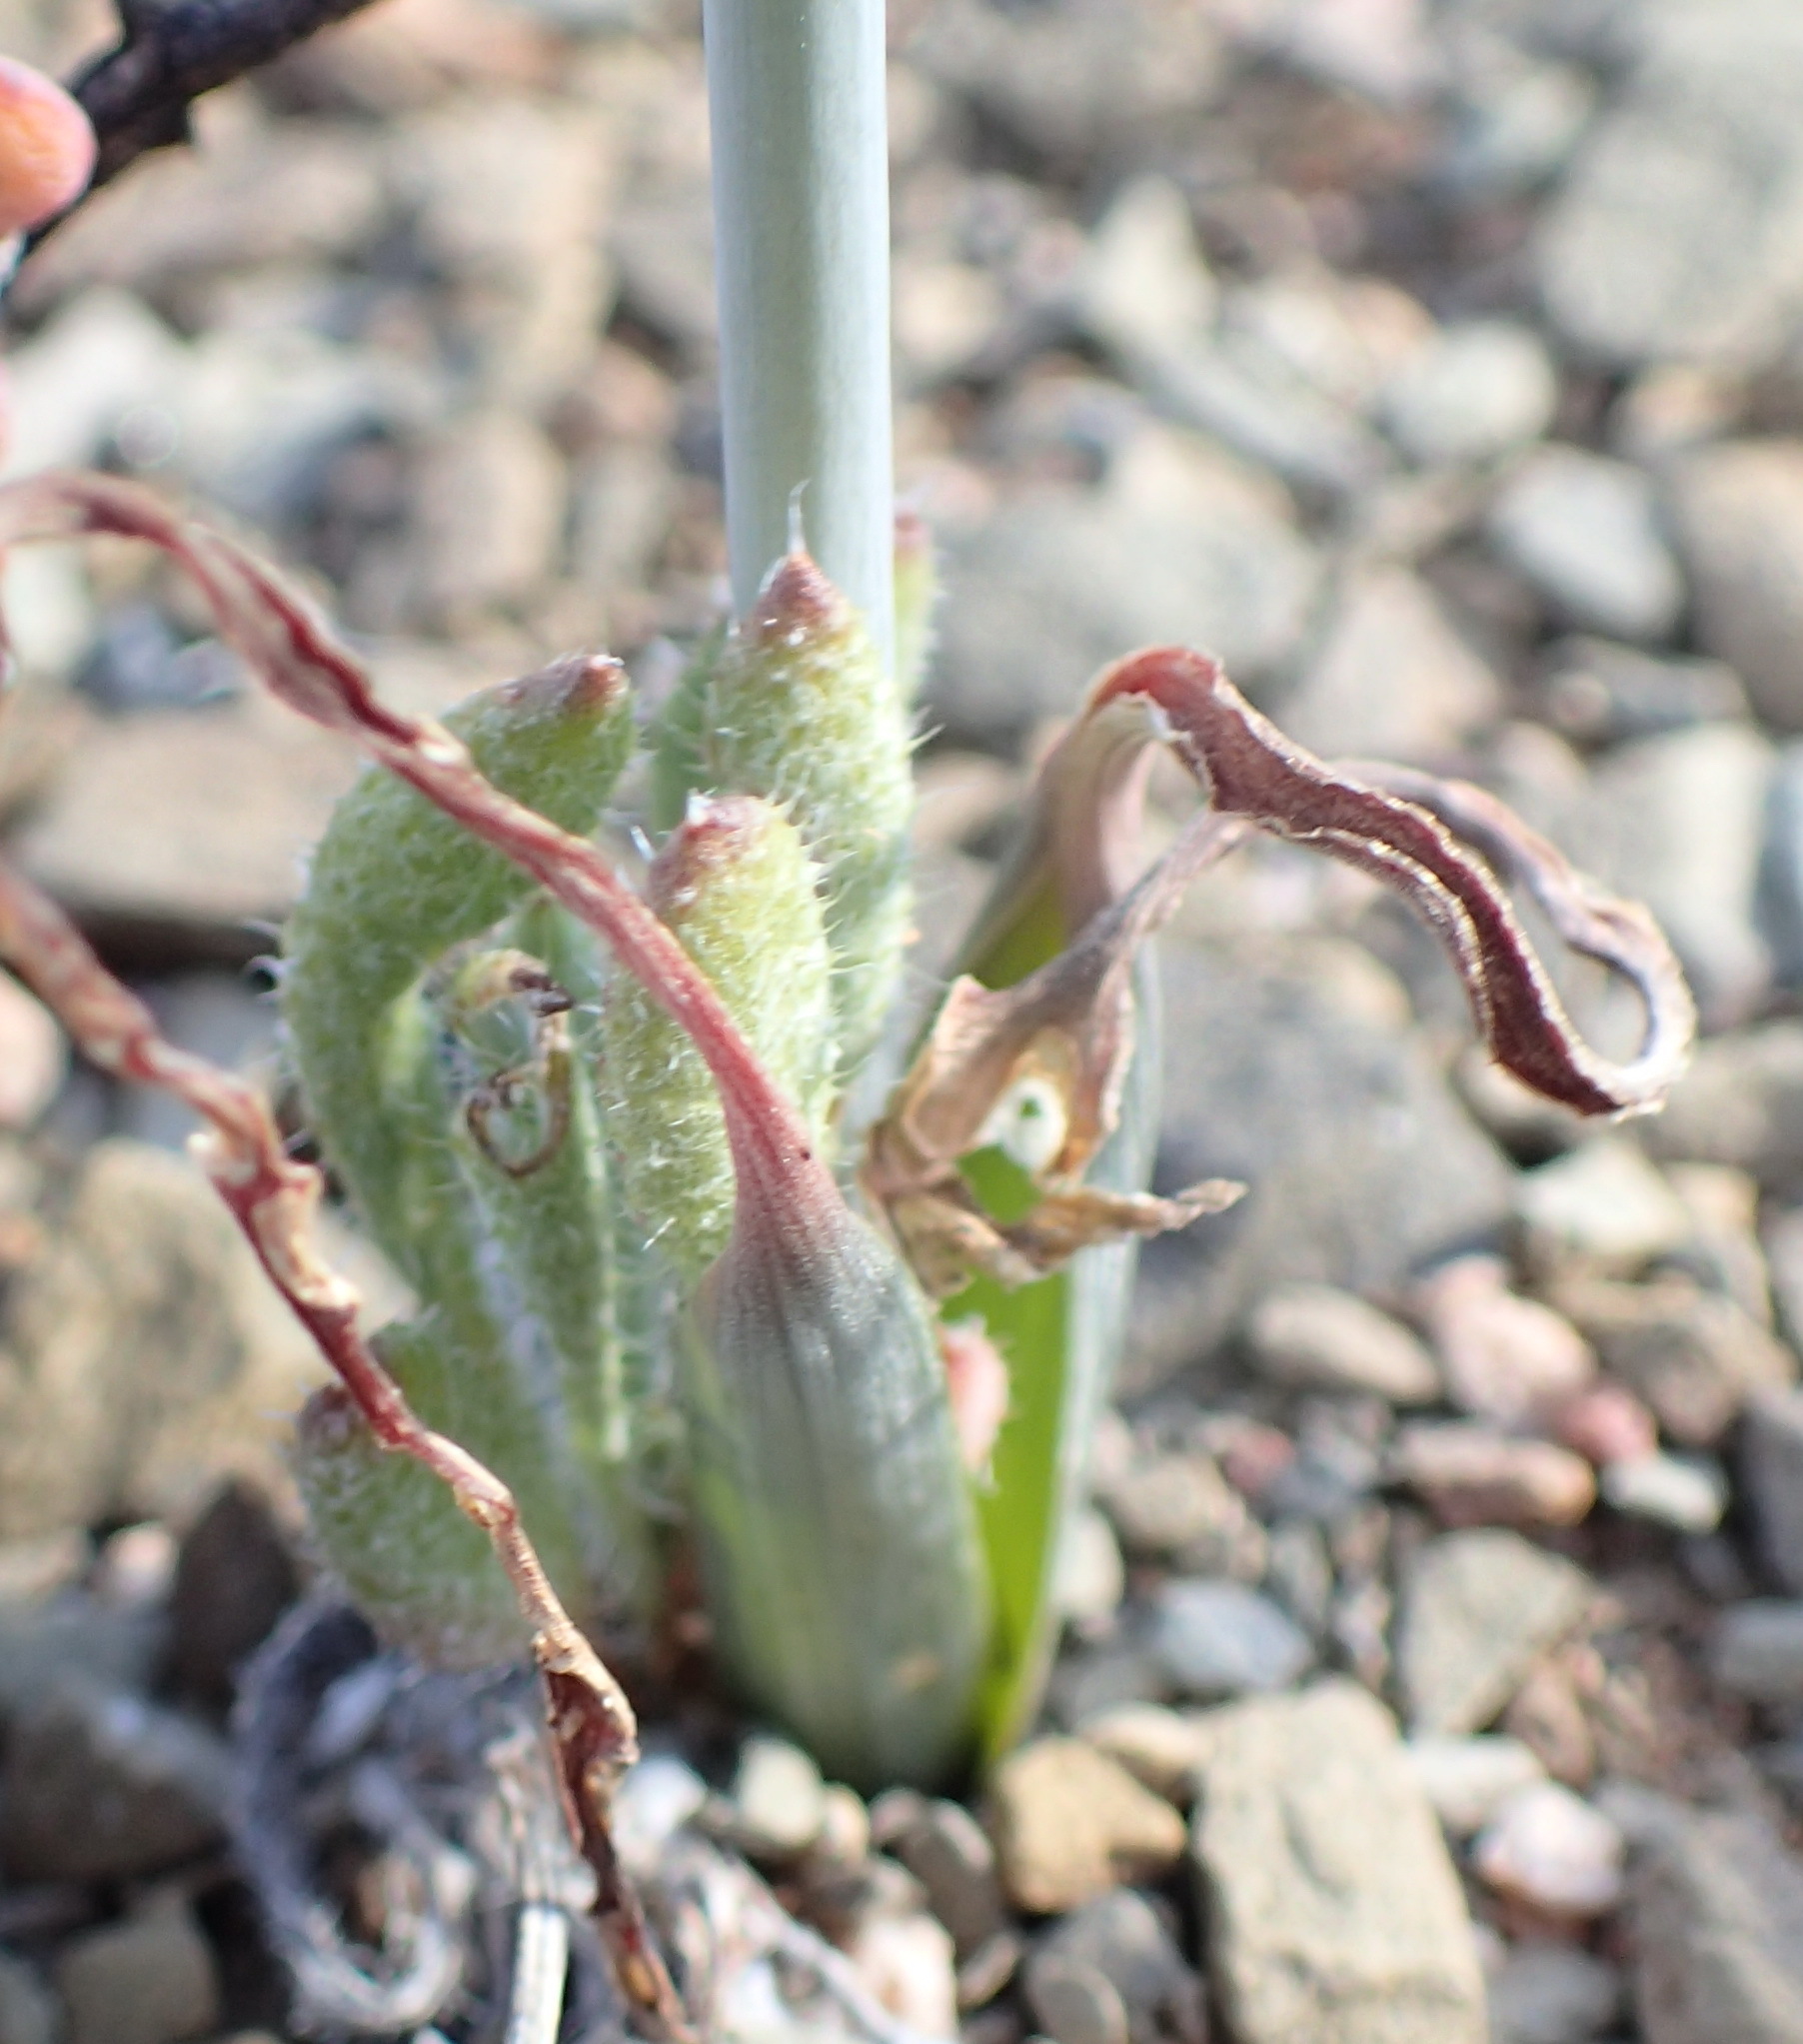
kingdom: Plantae
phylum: Tracheophyta
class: Liliopsida
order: Asparagales
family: Asparagaceae
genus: Albuca
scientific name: Albuca longipes
